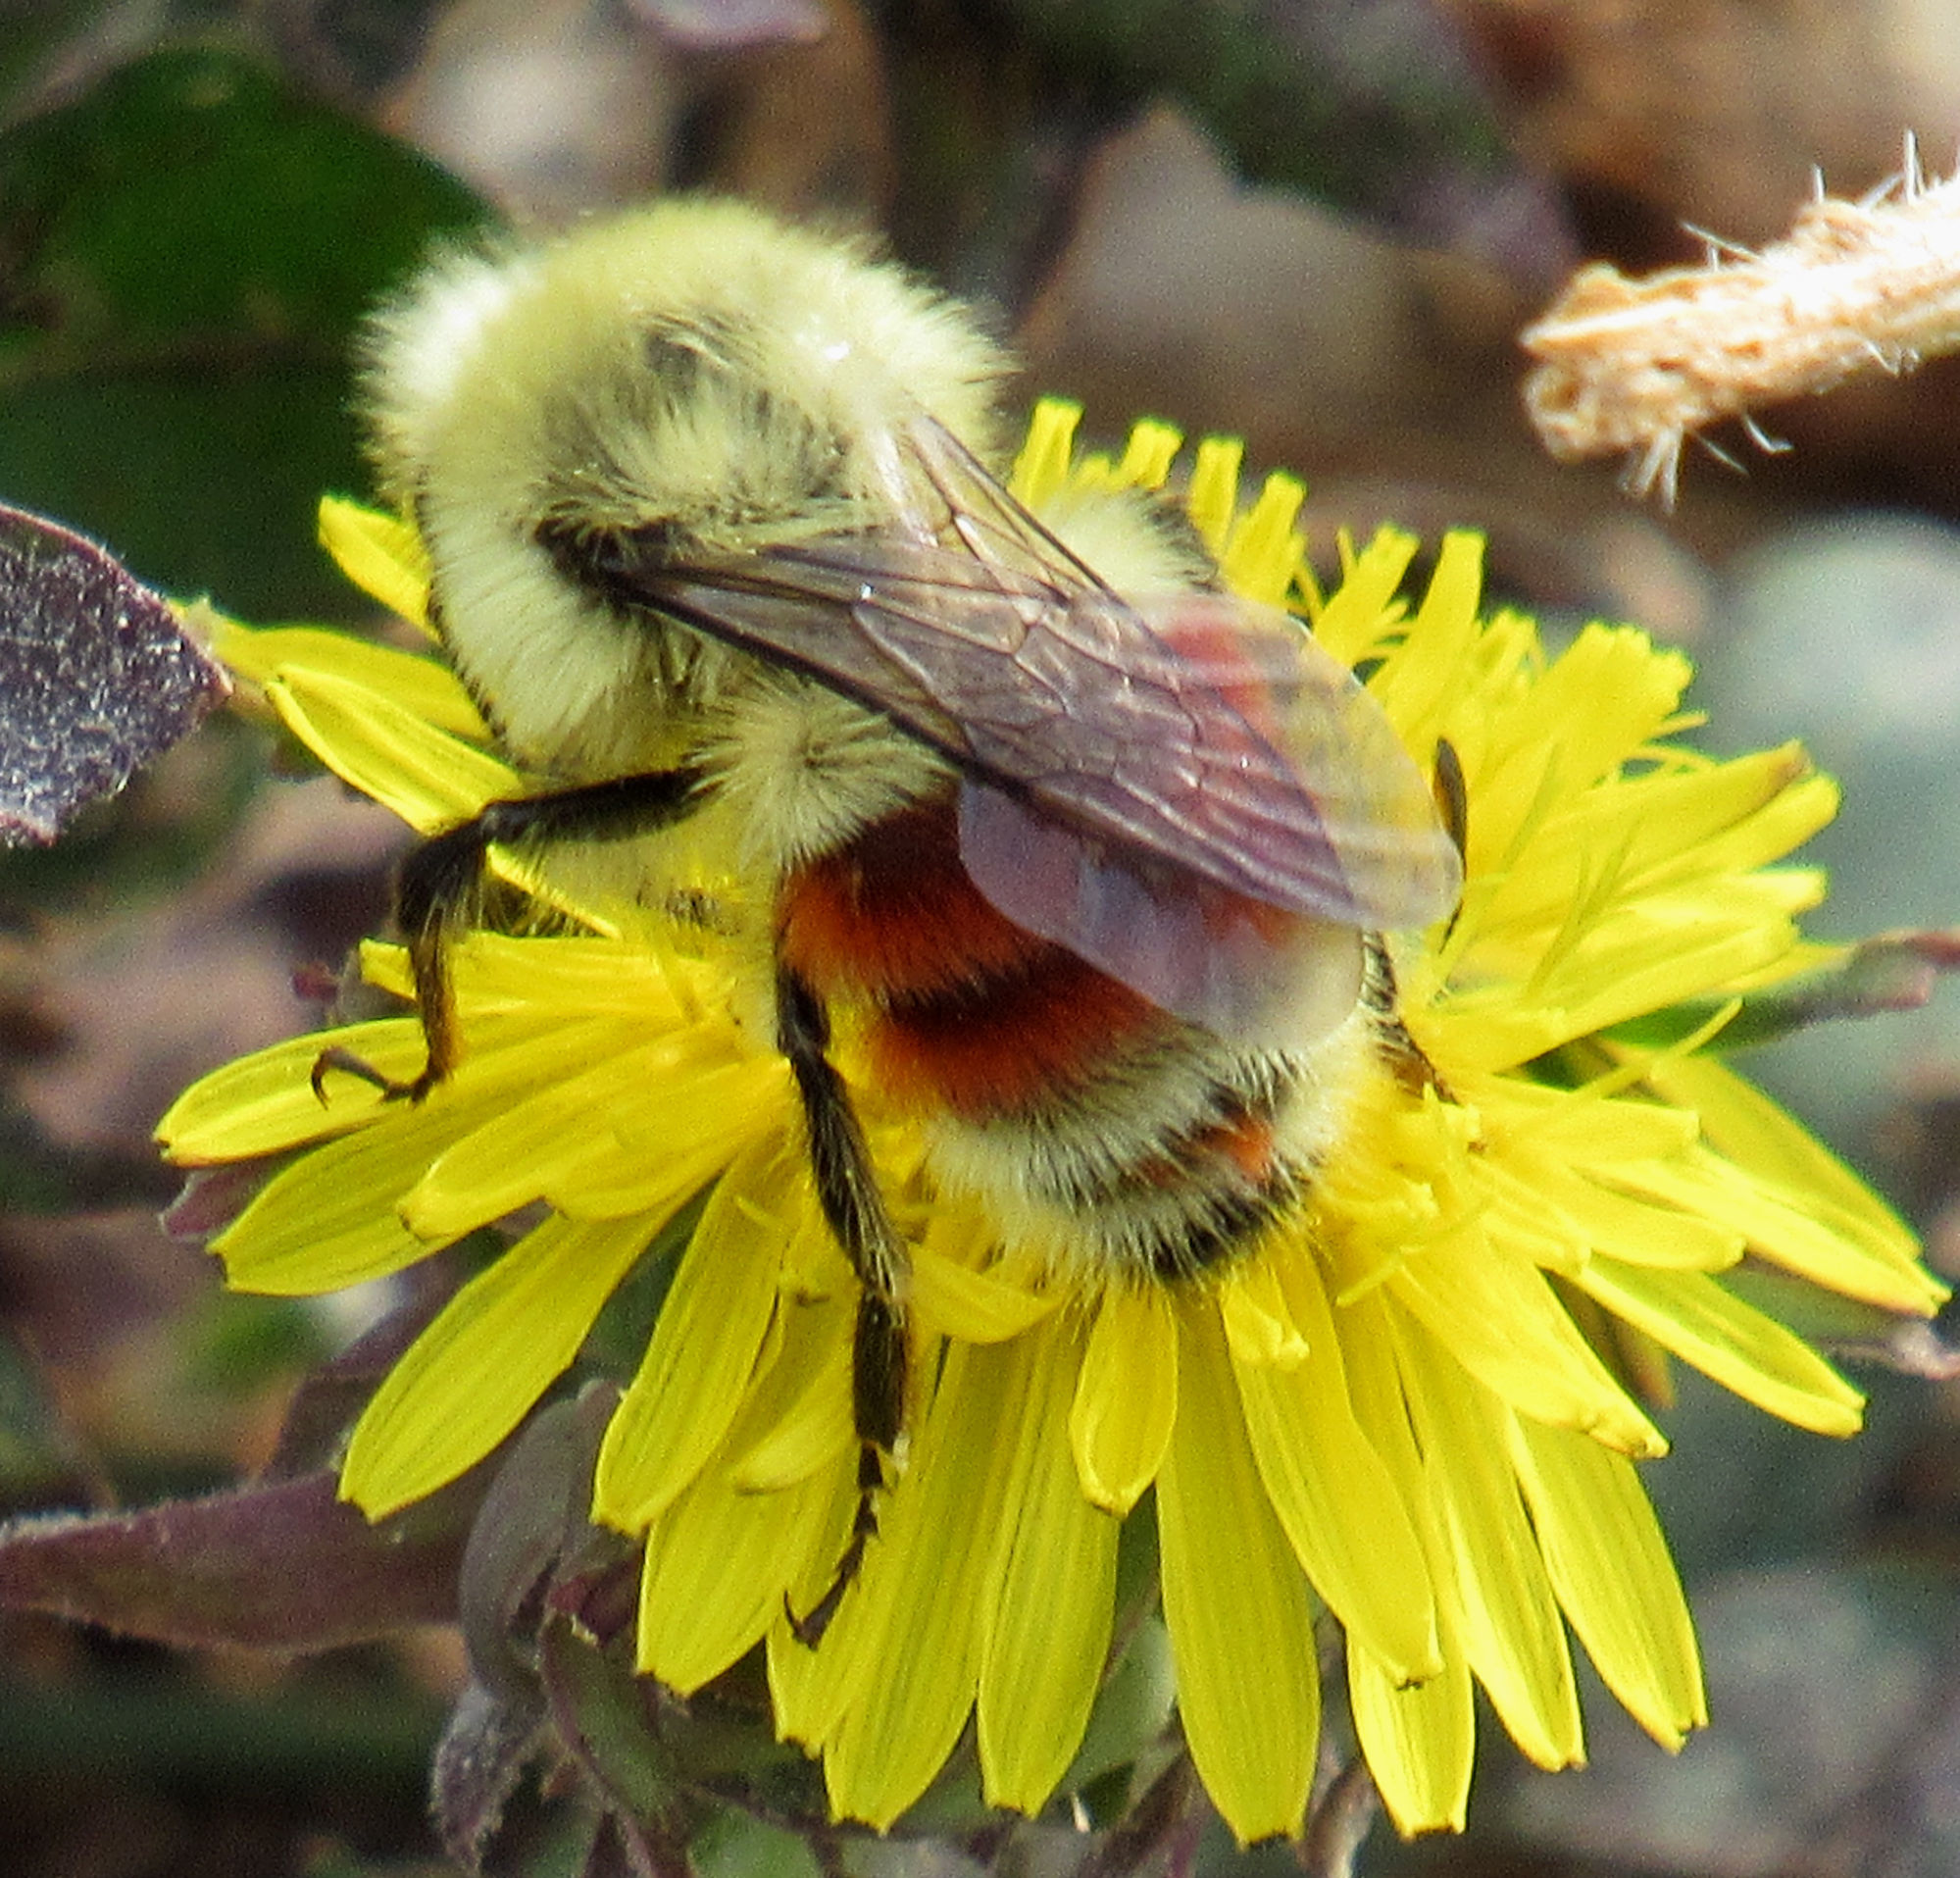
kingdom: Animalia
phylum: Arthropoda
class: Insecta
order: Hymenoptera
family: Apidae
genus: Bombus
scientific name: Bombus huntii
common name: Hunt bumble bee
